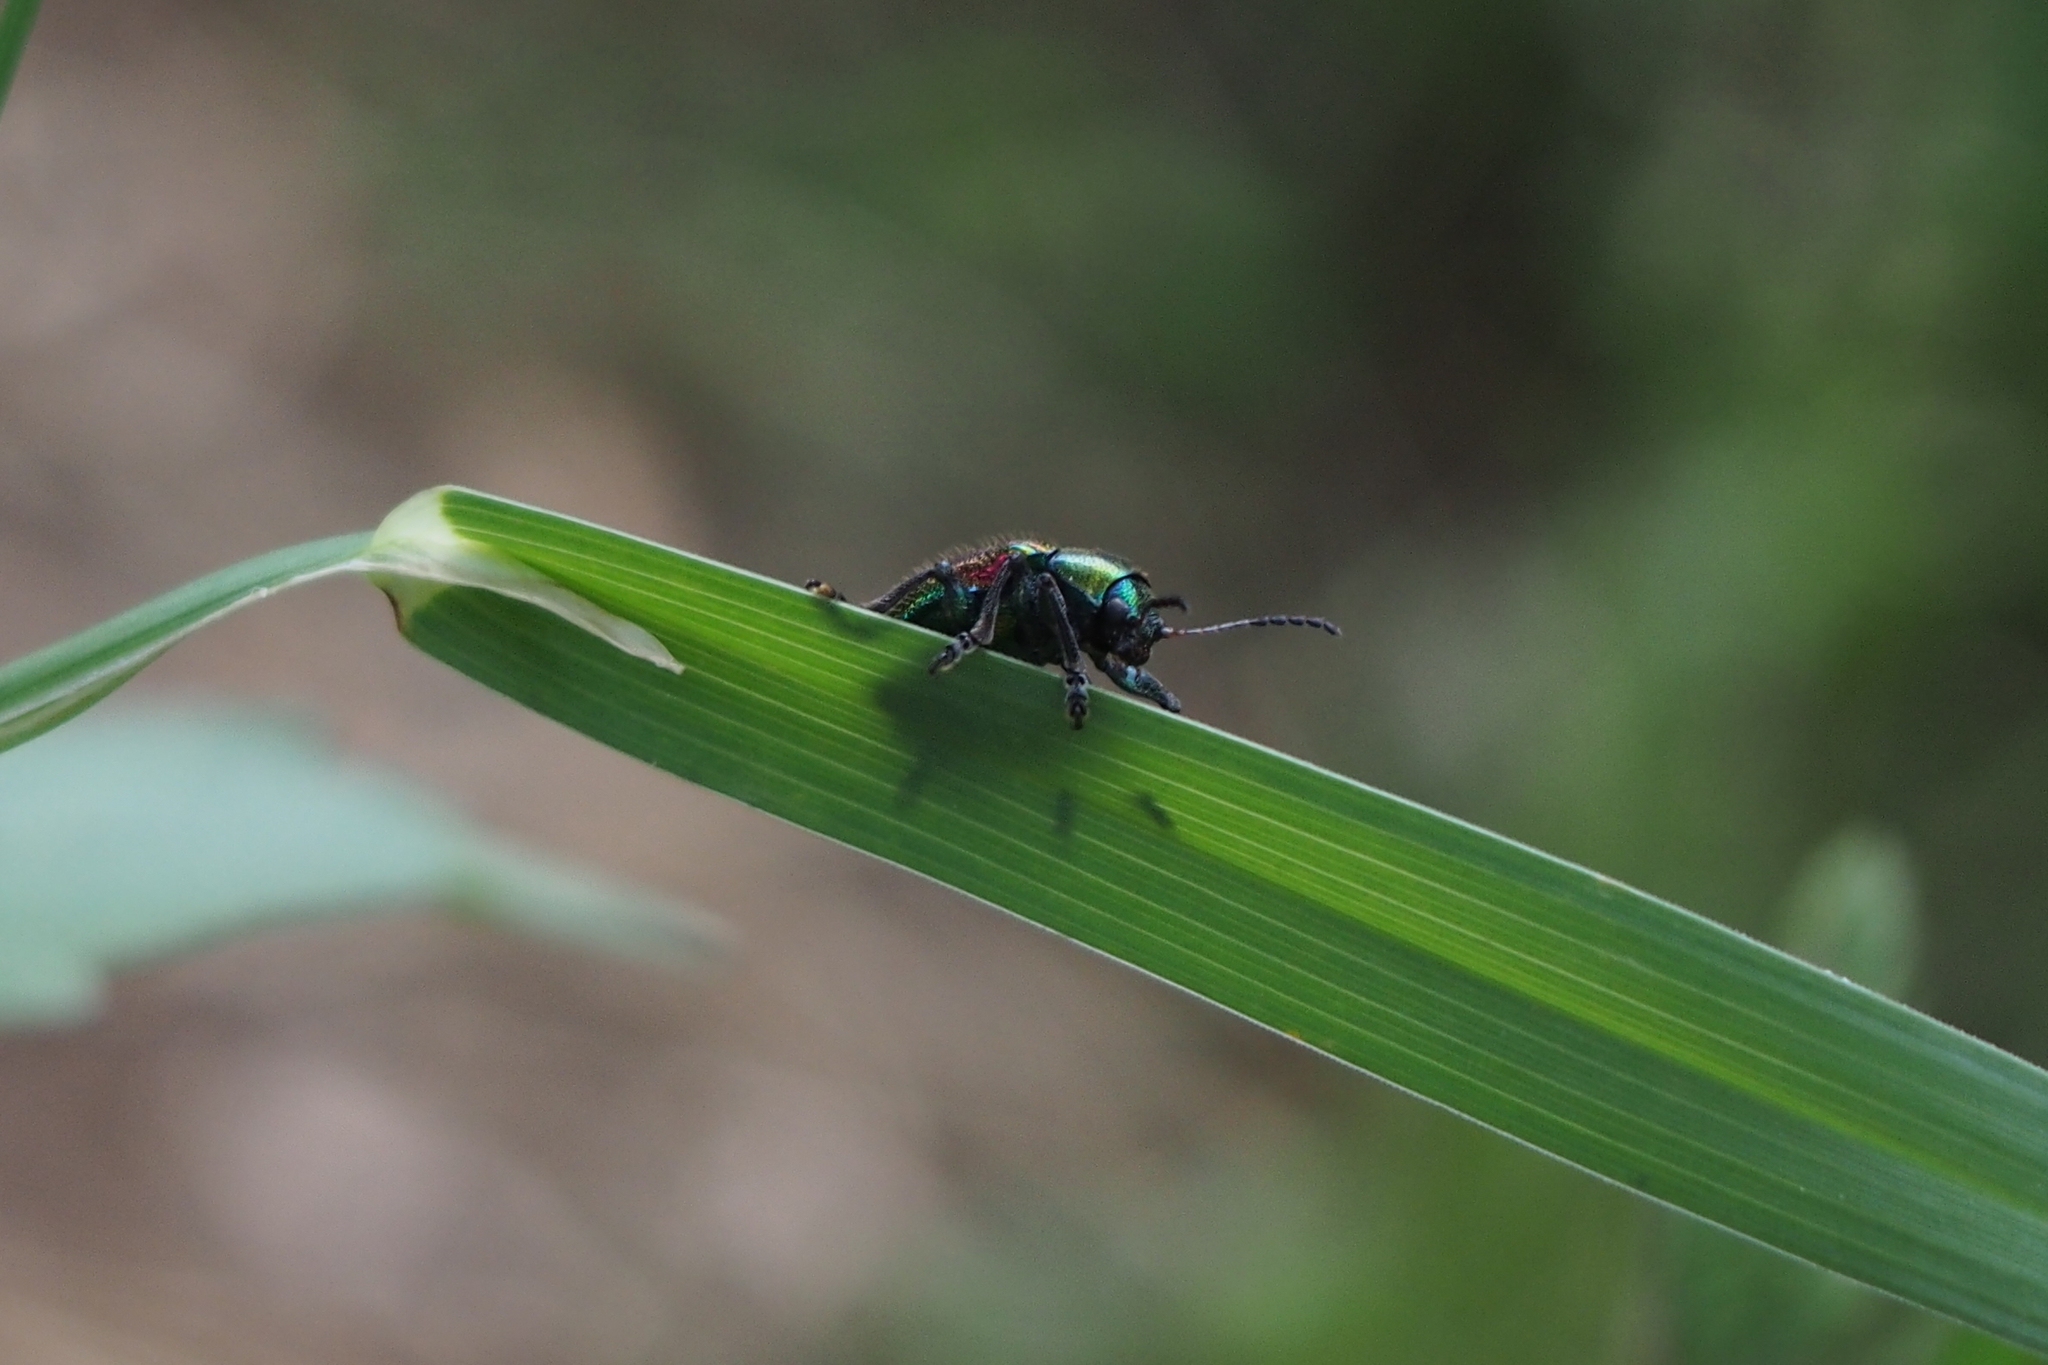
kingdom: Animalia
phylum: Arthropoda
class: Insecta
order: Coleoptera
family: Chrysomelidae
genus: Acrothinium
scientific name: Acrothinium gaschkevitchii
